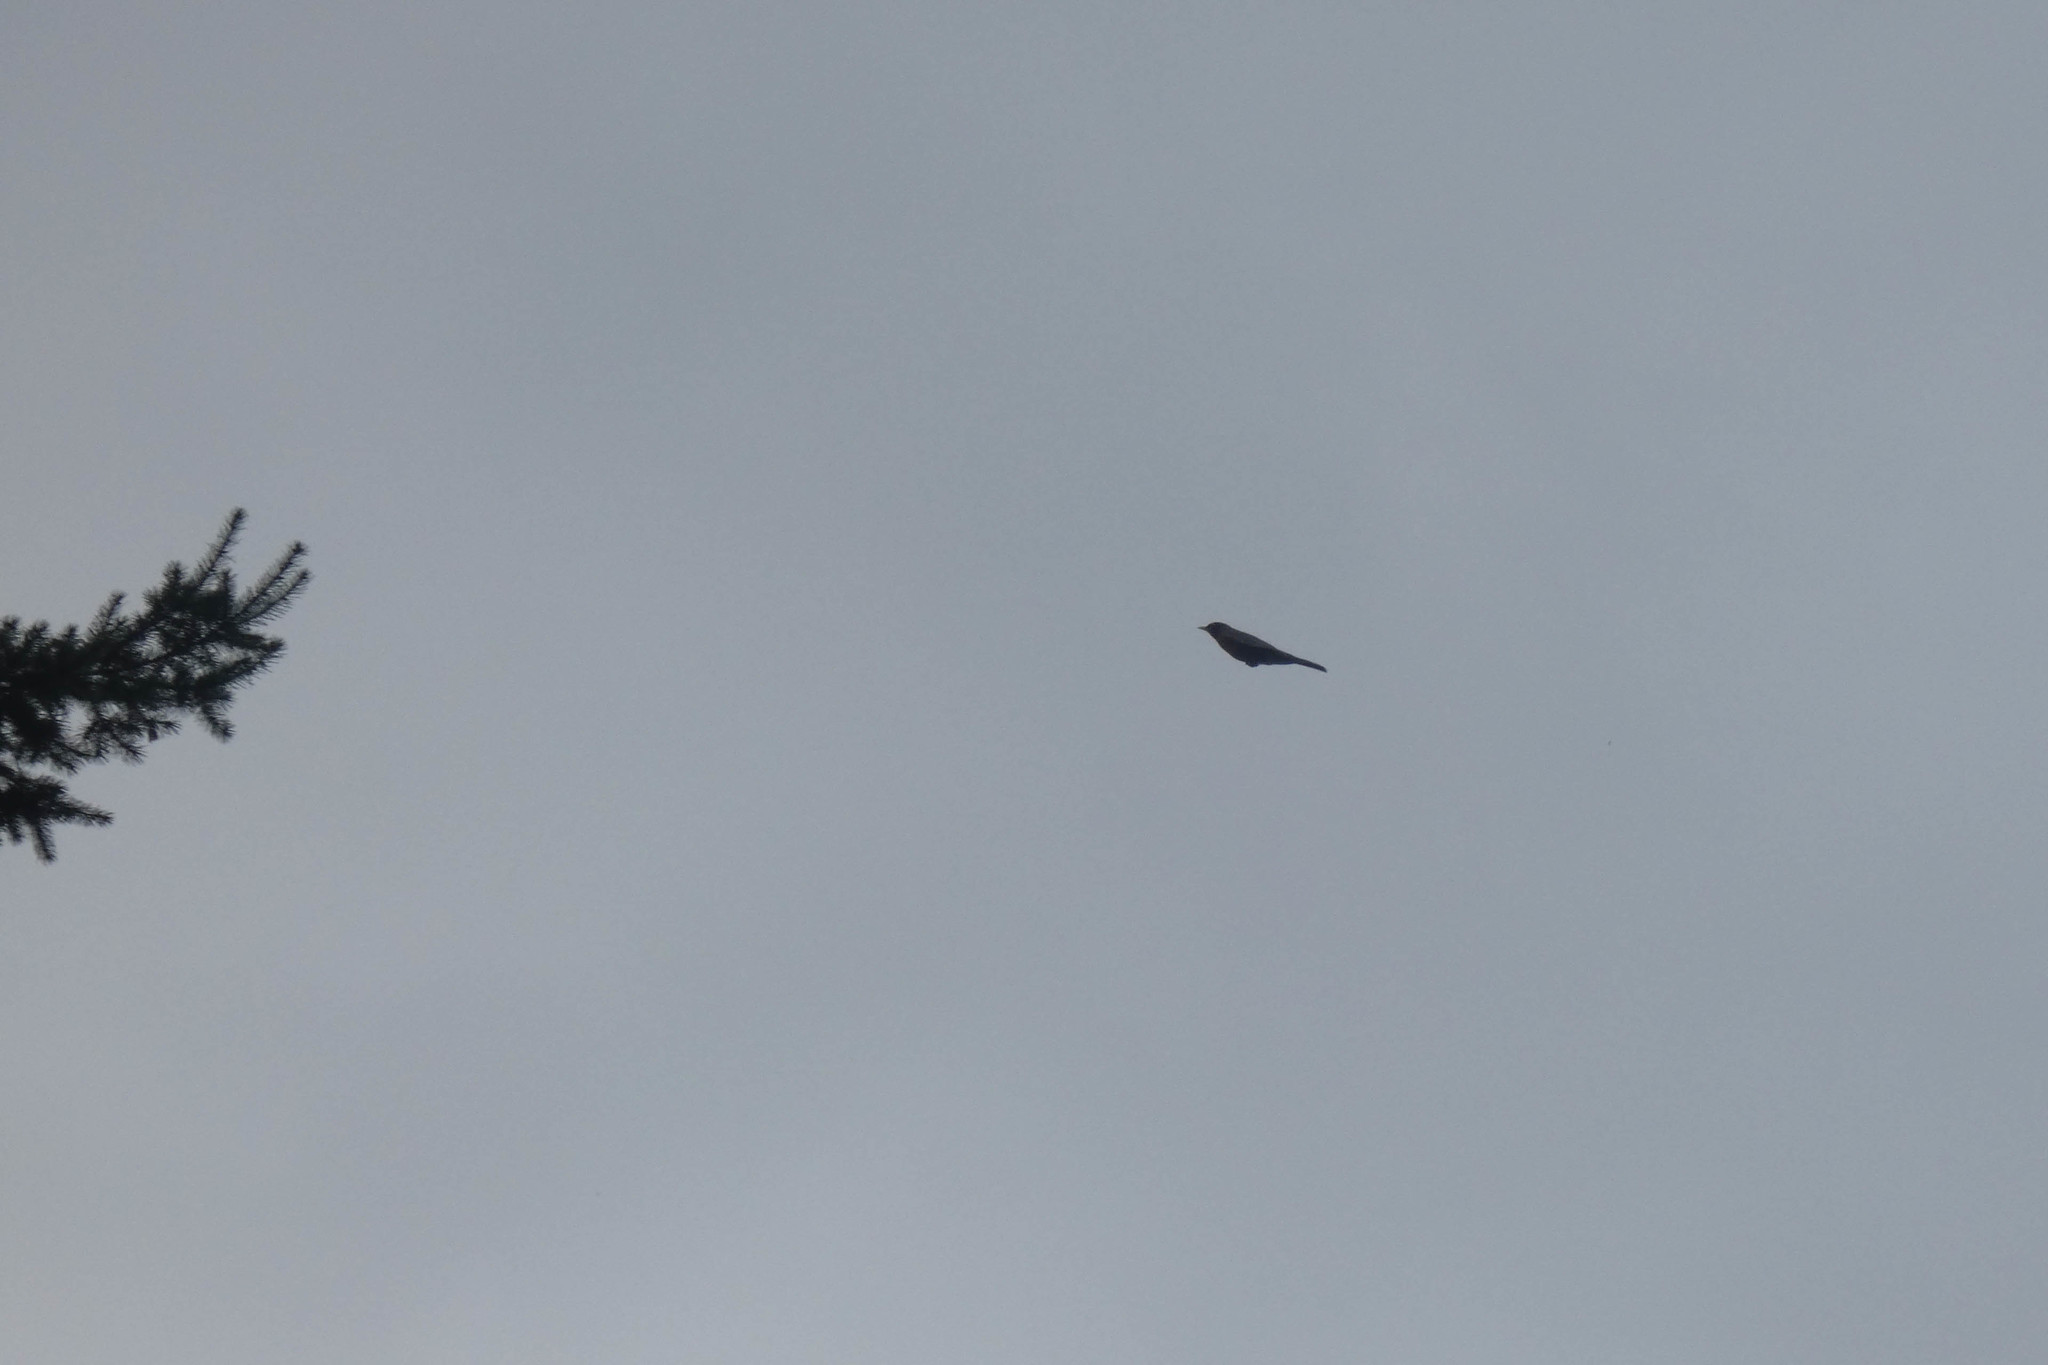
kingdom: Animalia
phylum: Chordata
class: Aves
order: Passeriformes
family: Turdidae
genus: Turdus
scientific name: Turdus migratorius
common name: American robin
